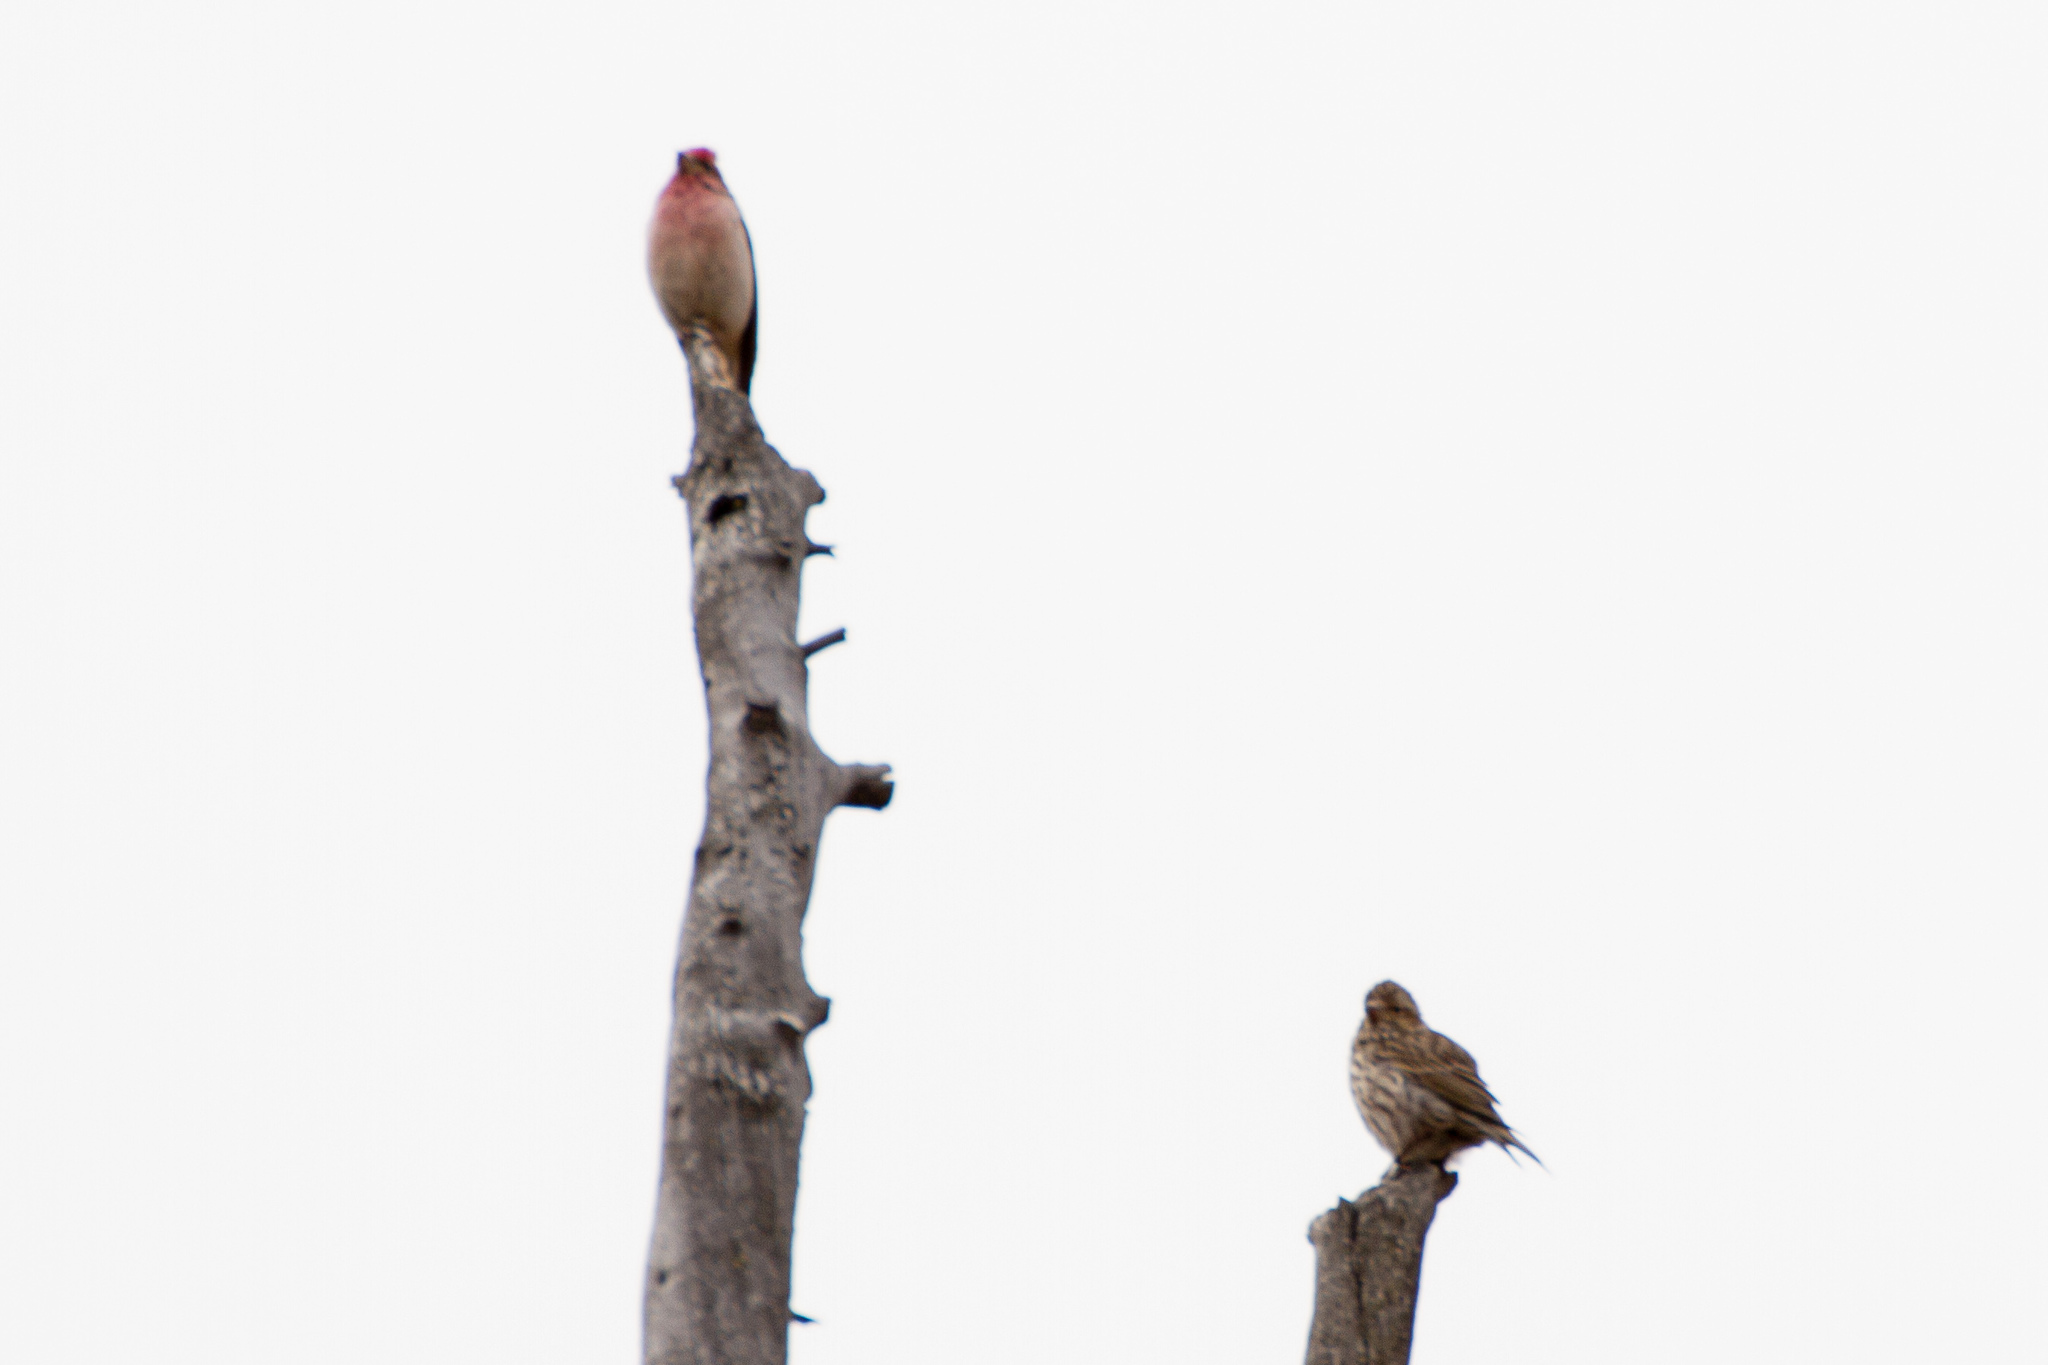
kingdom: Animalia
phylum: Chordata
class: Aves
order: Passeriformes
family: Fringillidae
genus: Haemorhous
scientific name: Haemorhous cassinii
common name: Cassin's finch
